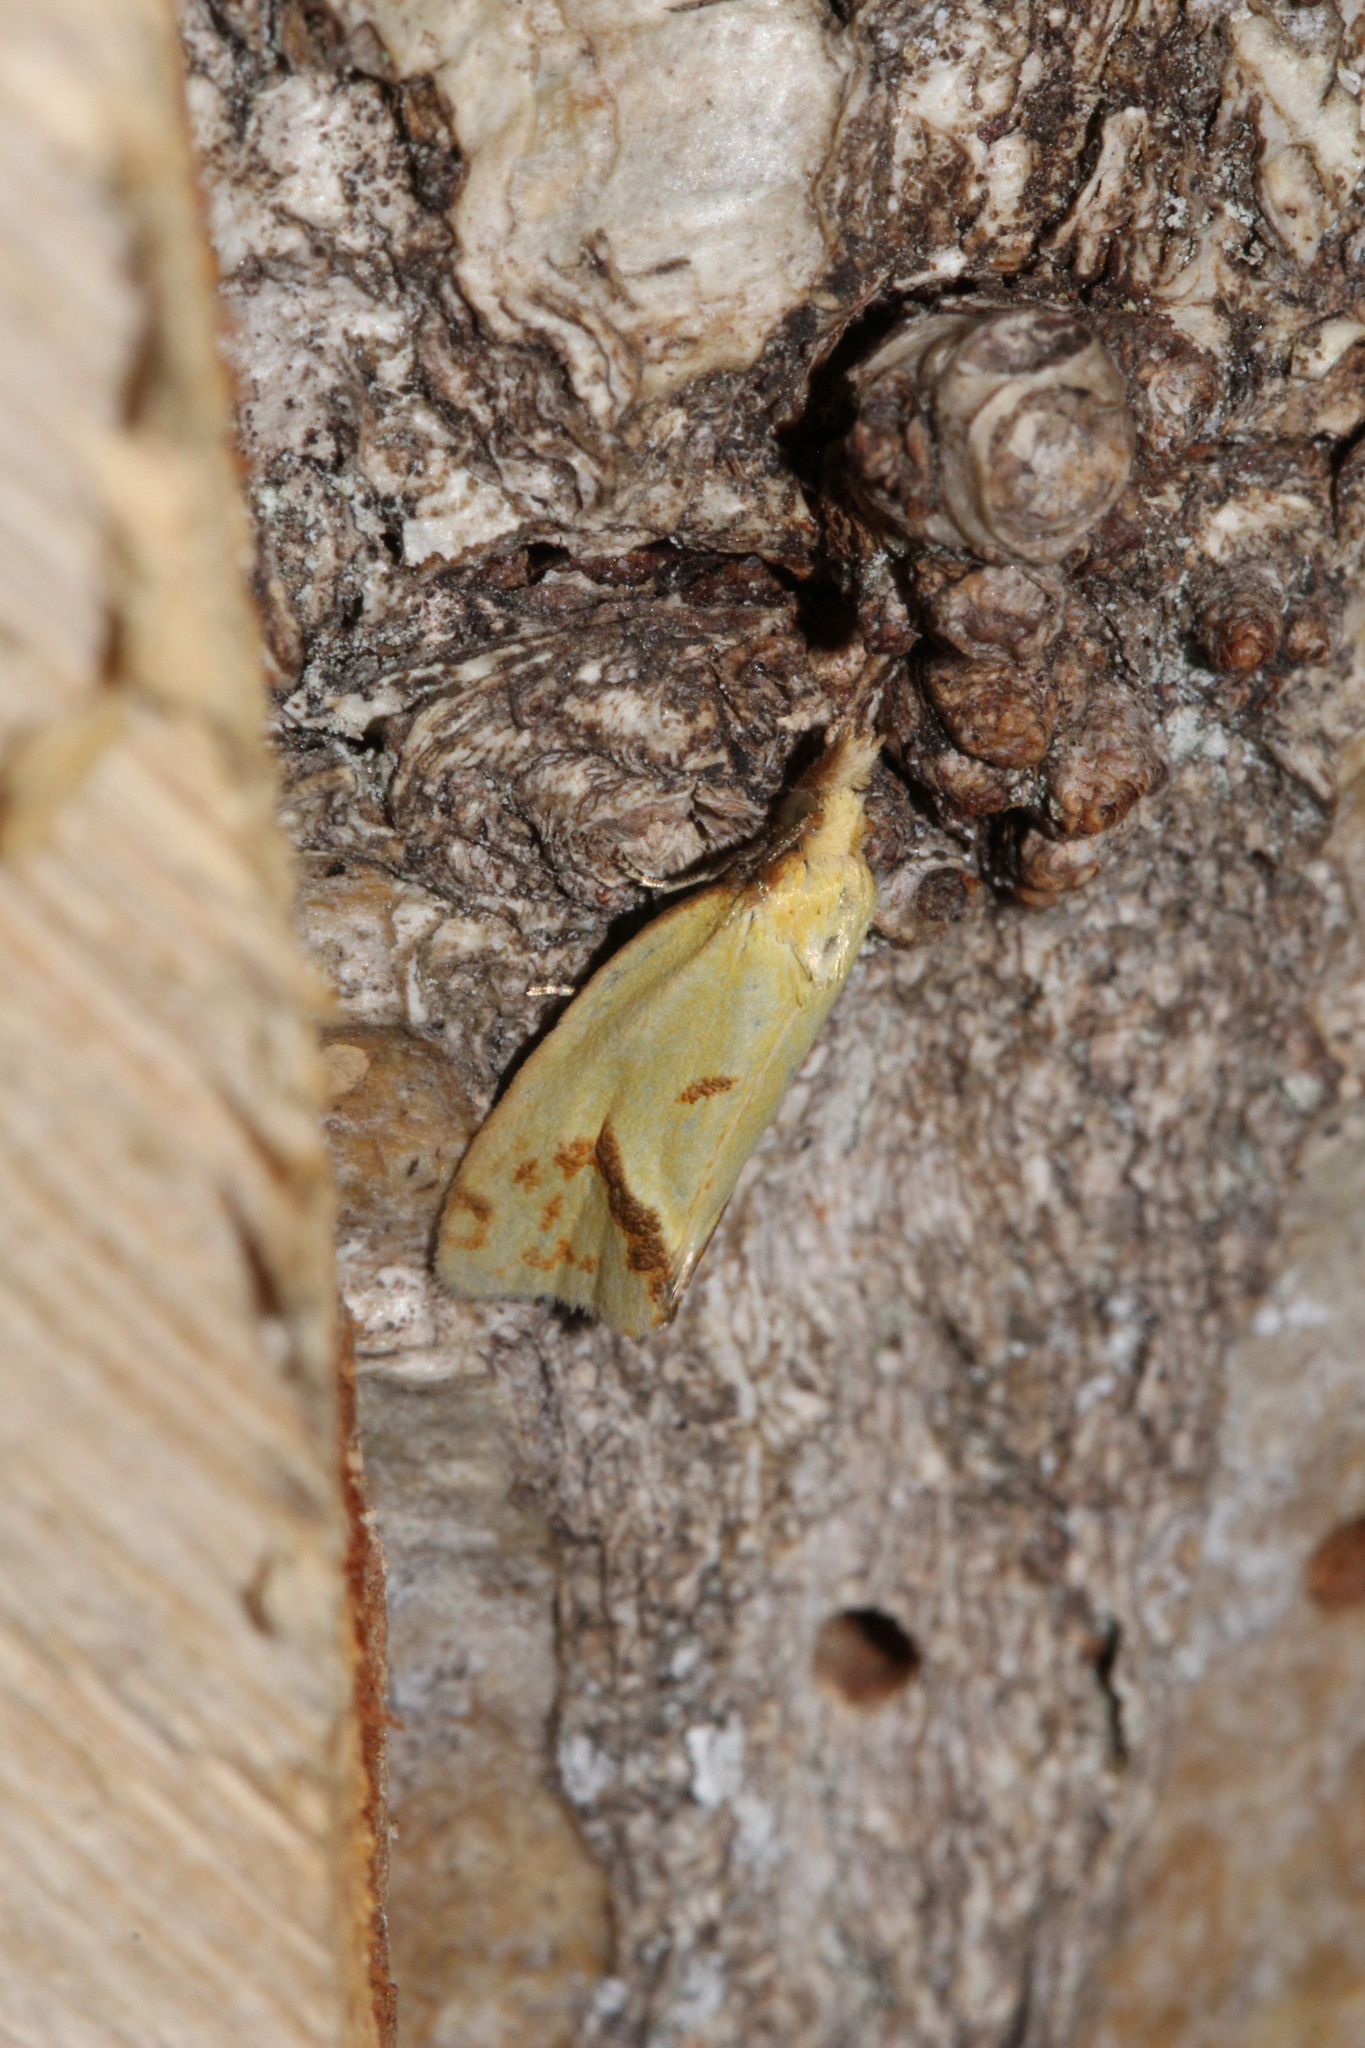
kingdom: Animalia
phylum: Arthropoda
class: Insecta
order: Lepidoptera
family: Tortricidae
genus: Agapeta
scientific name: Agapeta hamana
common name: Common yellow conch
